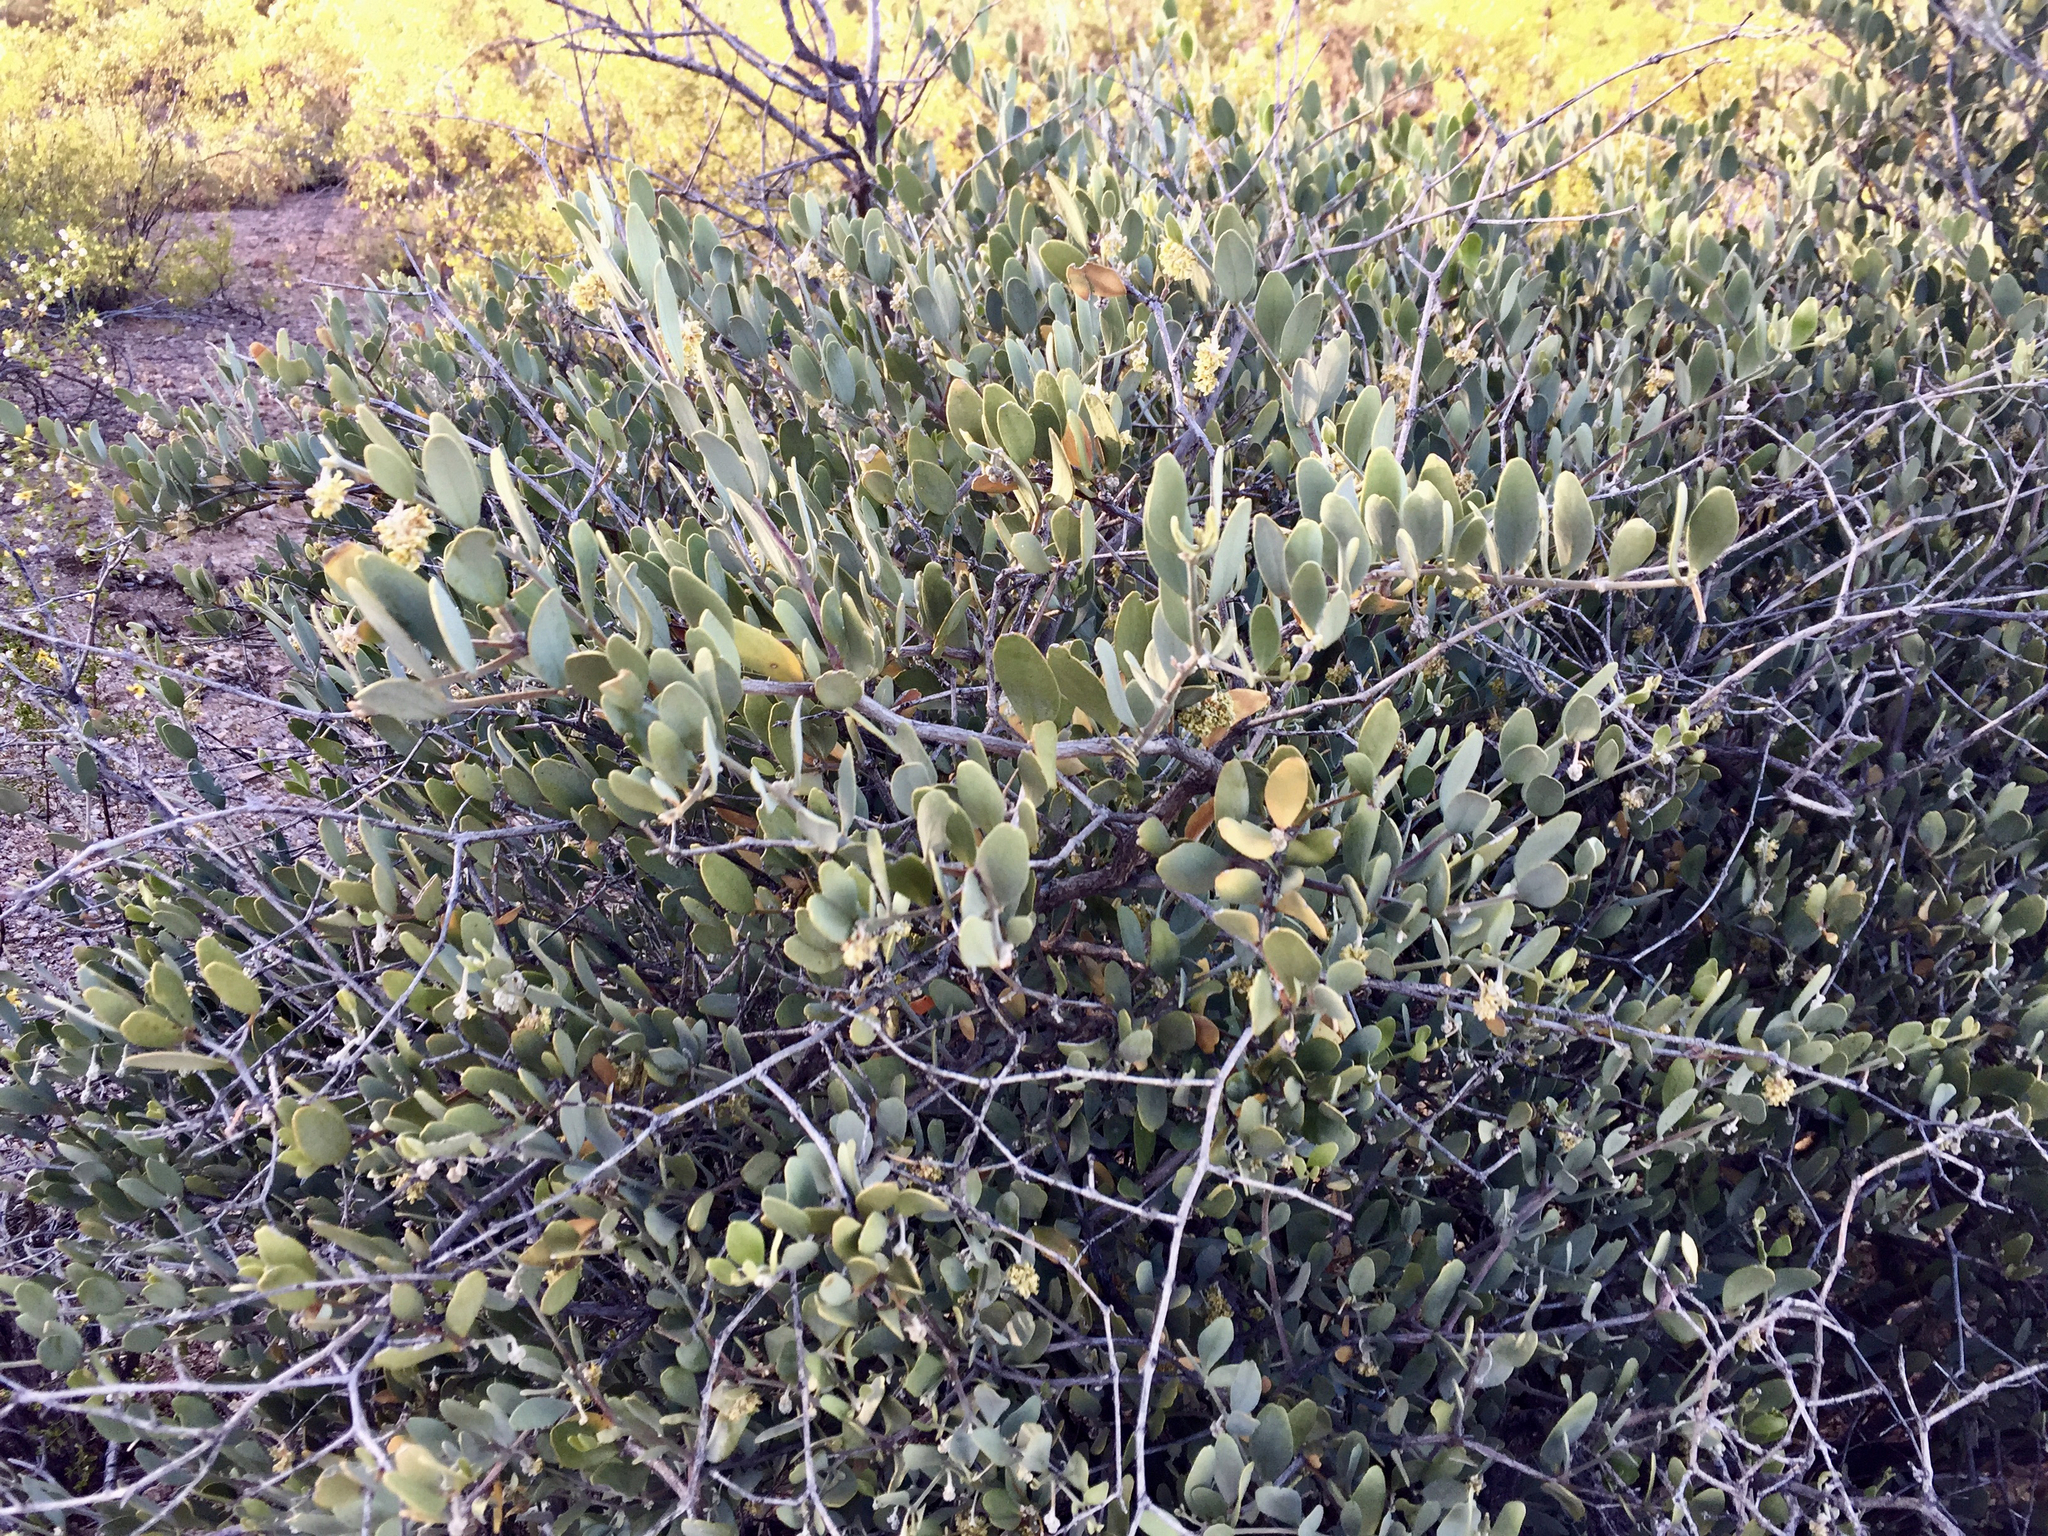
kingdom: Plantae
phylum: Tracheophyta
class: Magnoliopsida
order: Caryophyllales
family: Simmondsiaceae
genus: Simmondsia
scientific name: Simmondsia chinensis
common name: Jojoba
